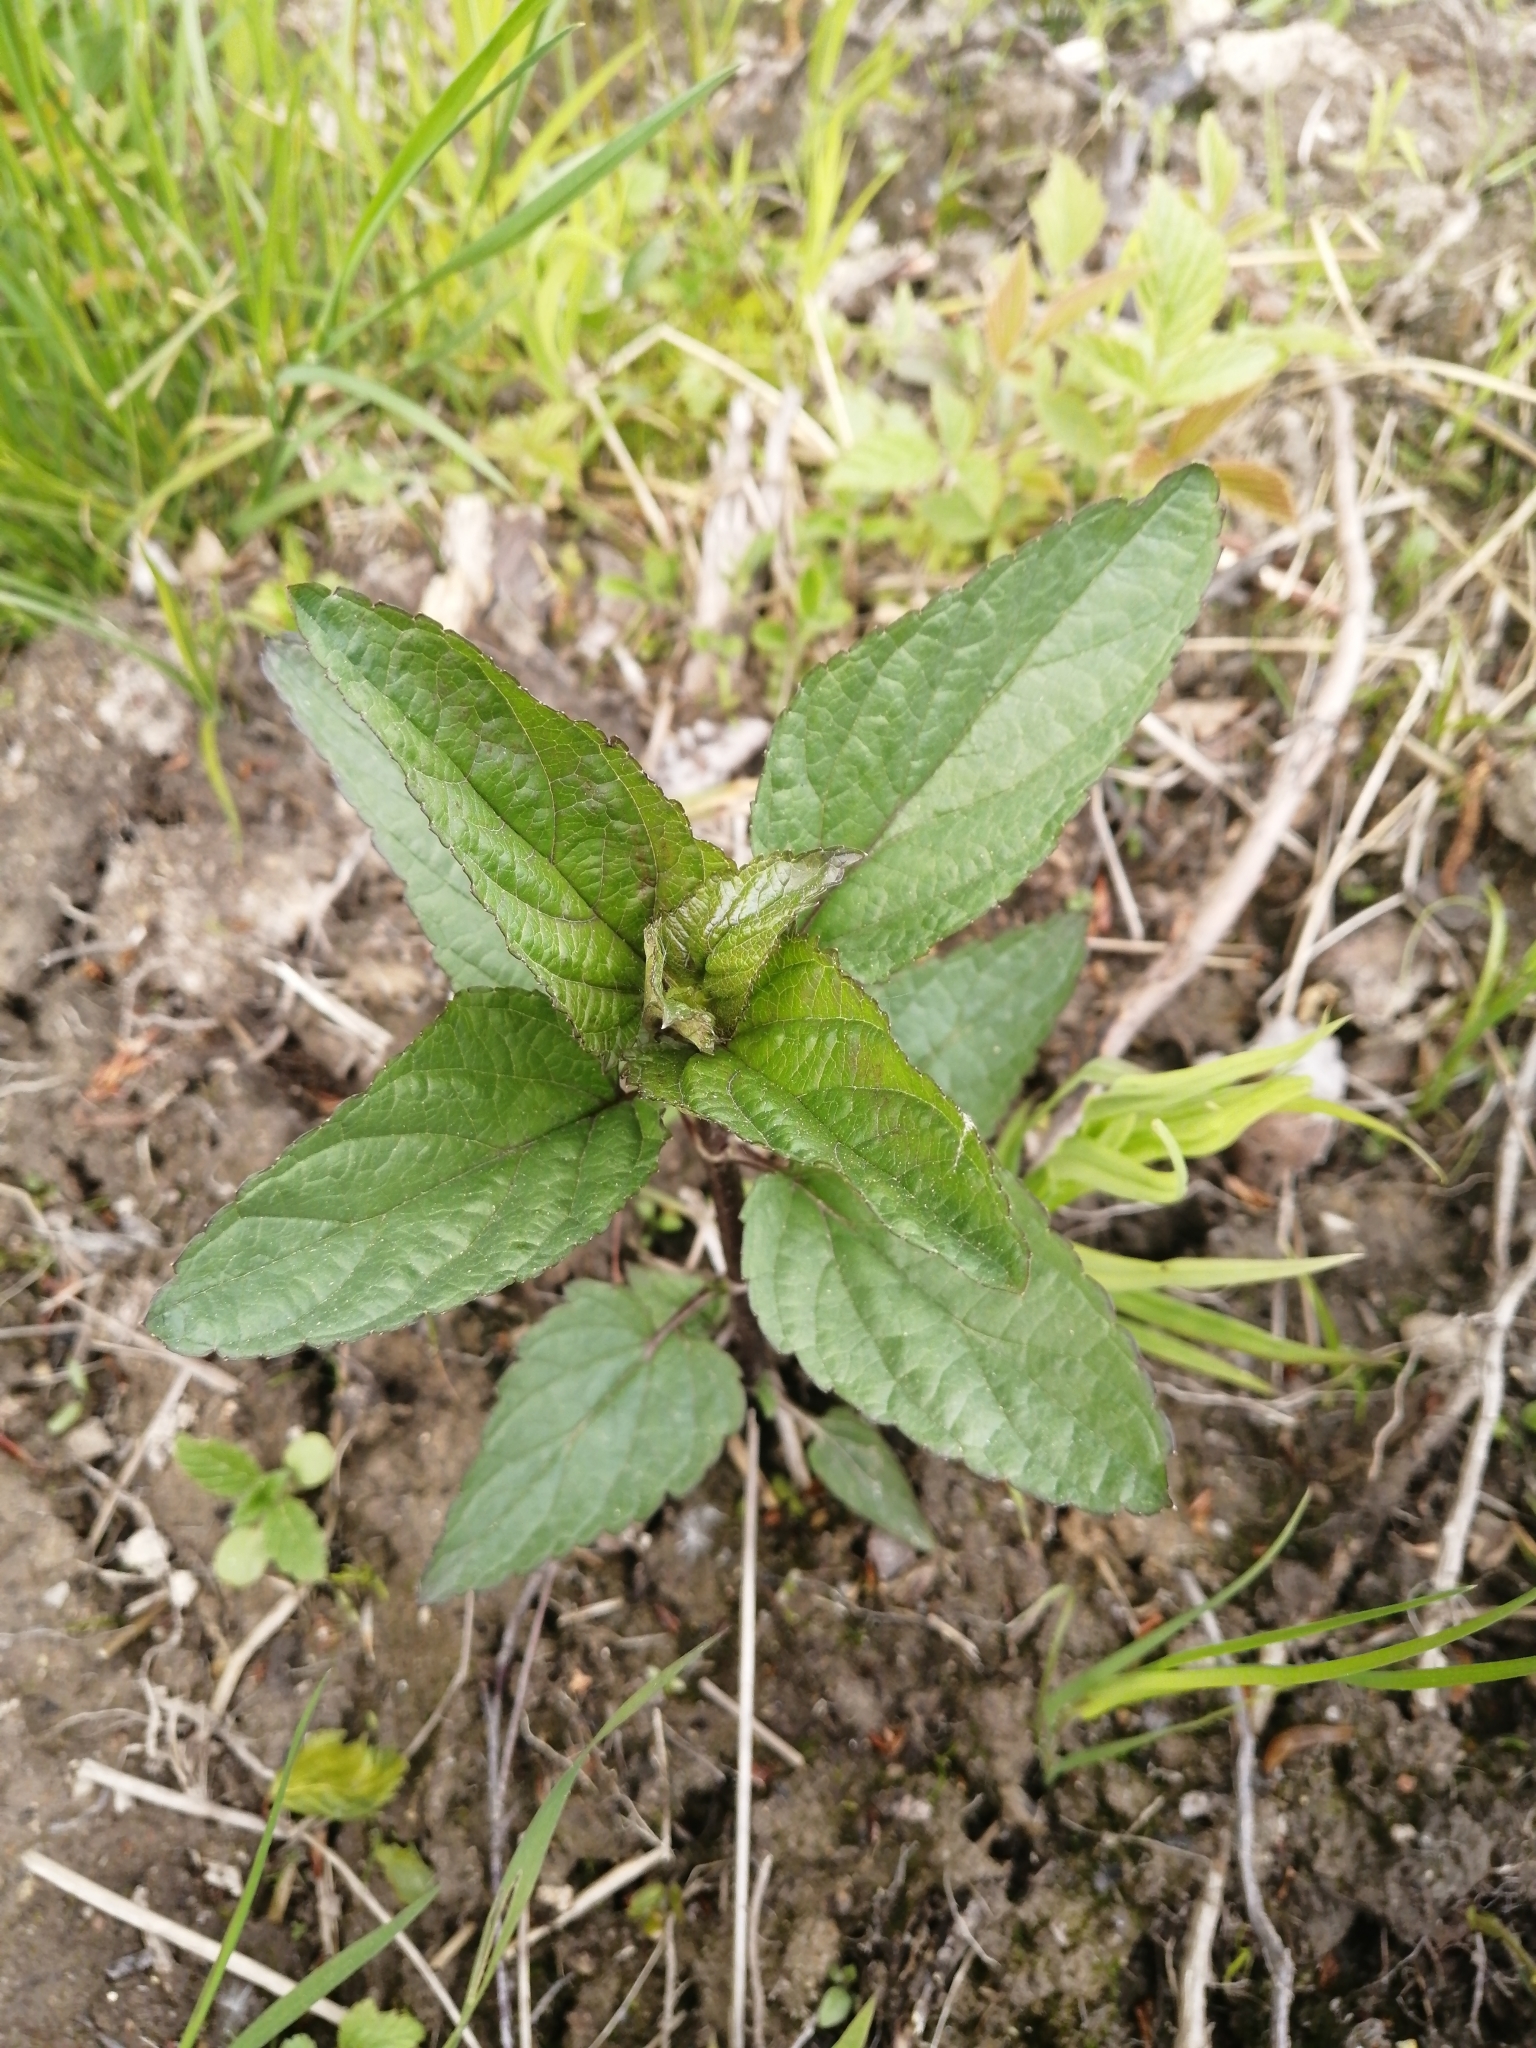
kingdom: Plantae
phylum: Tracheophyta
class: Magnoliopsida
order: Lamiales
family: Scrophulariaceae
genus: Scrophularia
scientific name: Scrophularia nodosa
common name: Common figwort
